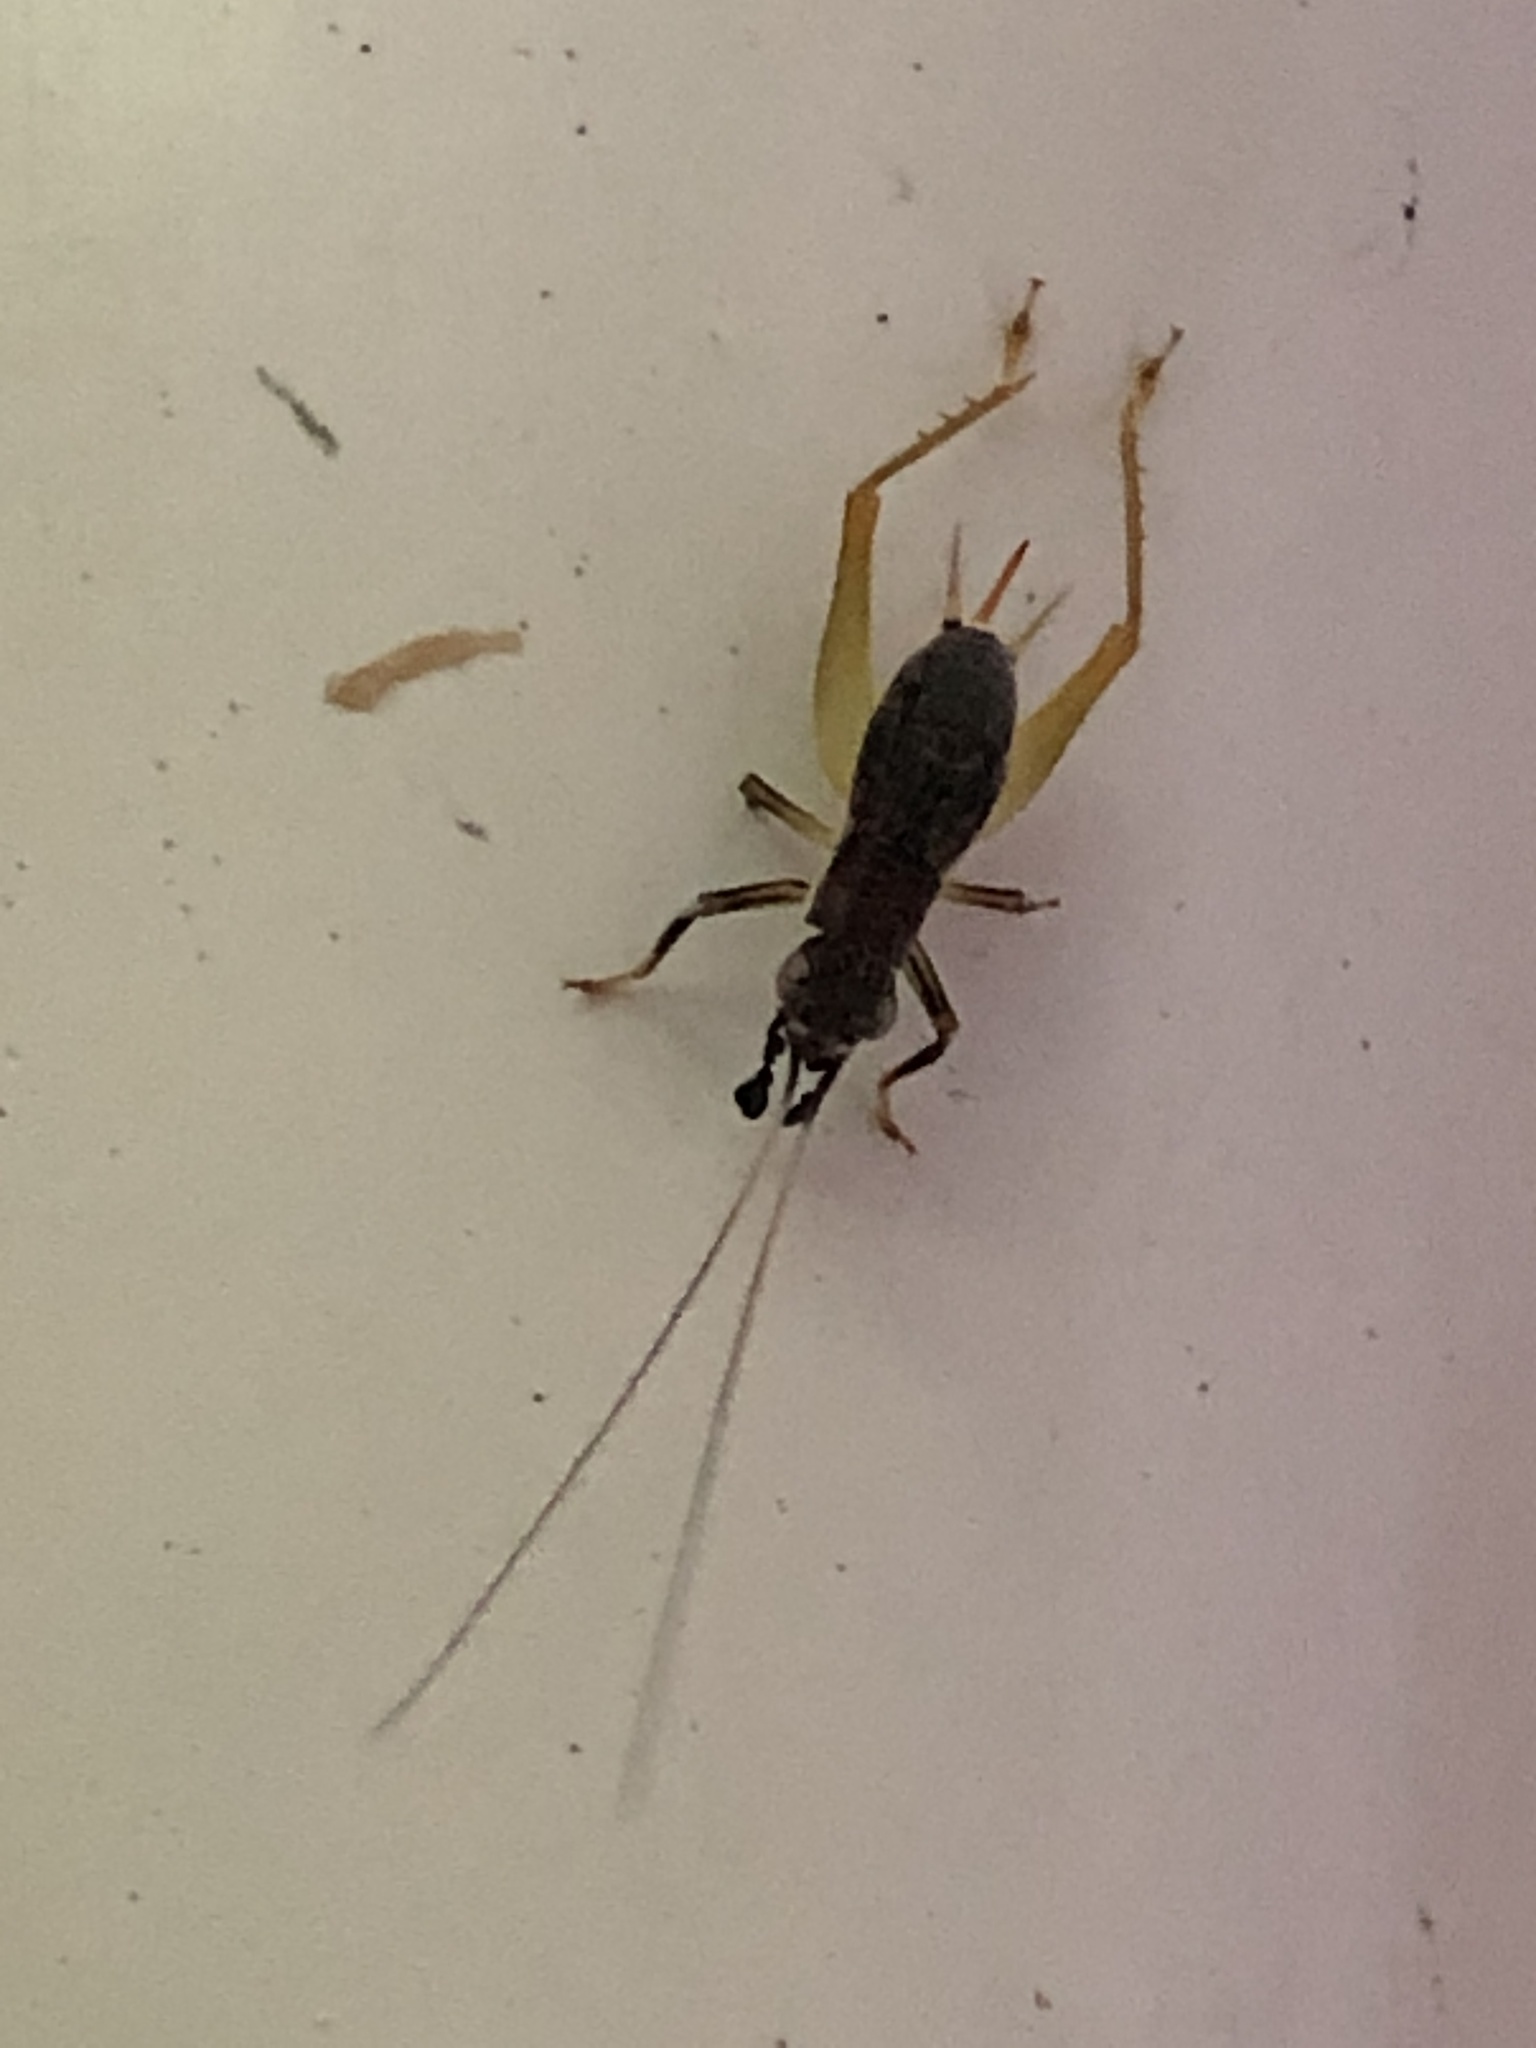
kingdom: Animalia
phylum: Arthropoda
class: Insecta
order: Orthoptera
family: Trigonidiidae
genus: Phyllopalpus
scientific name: Phyllopalpus pulchellus
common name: Handsome trig
